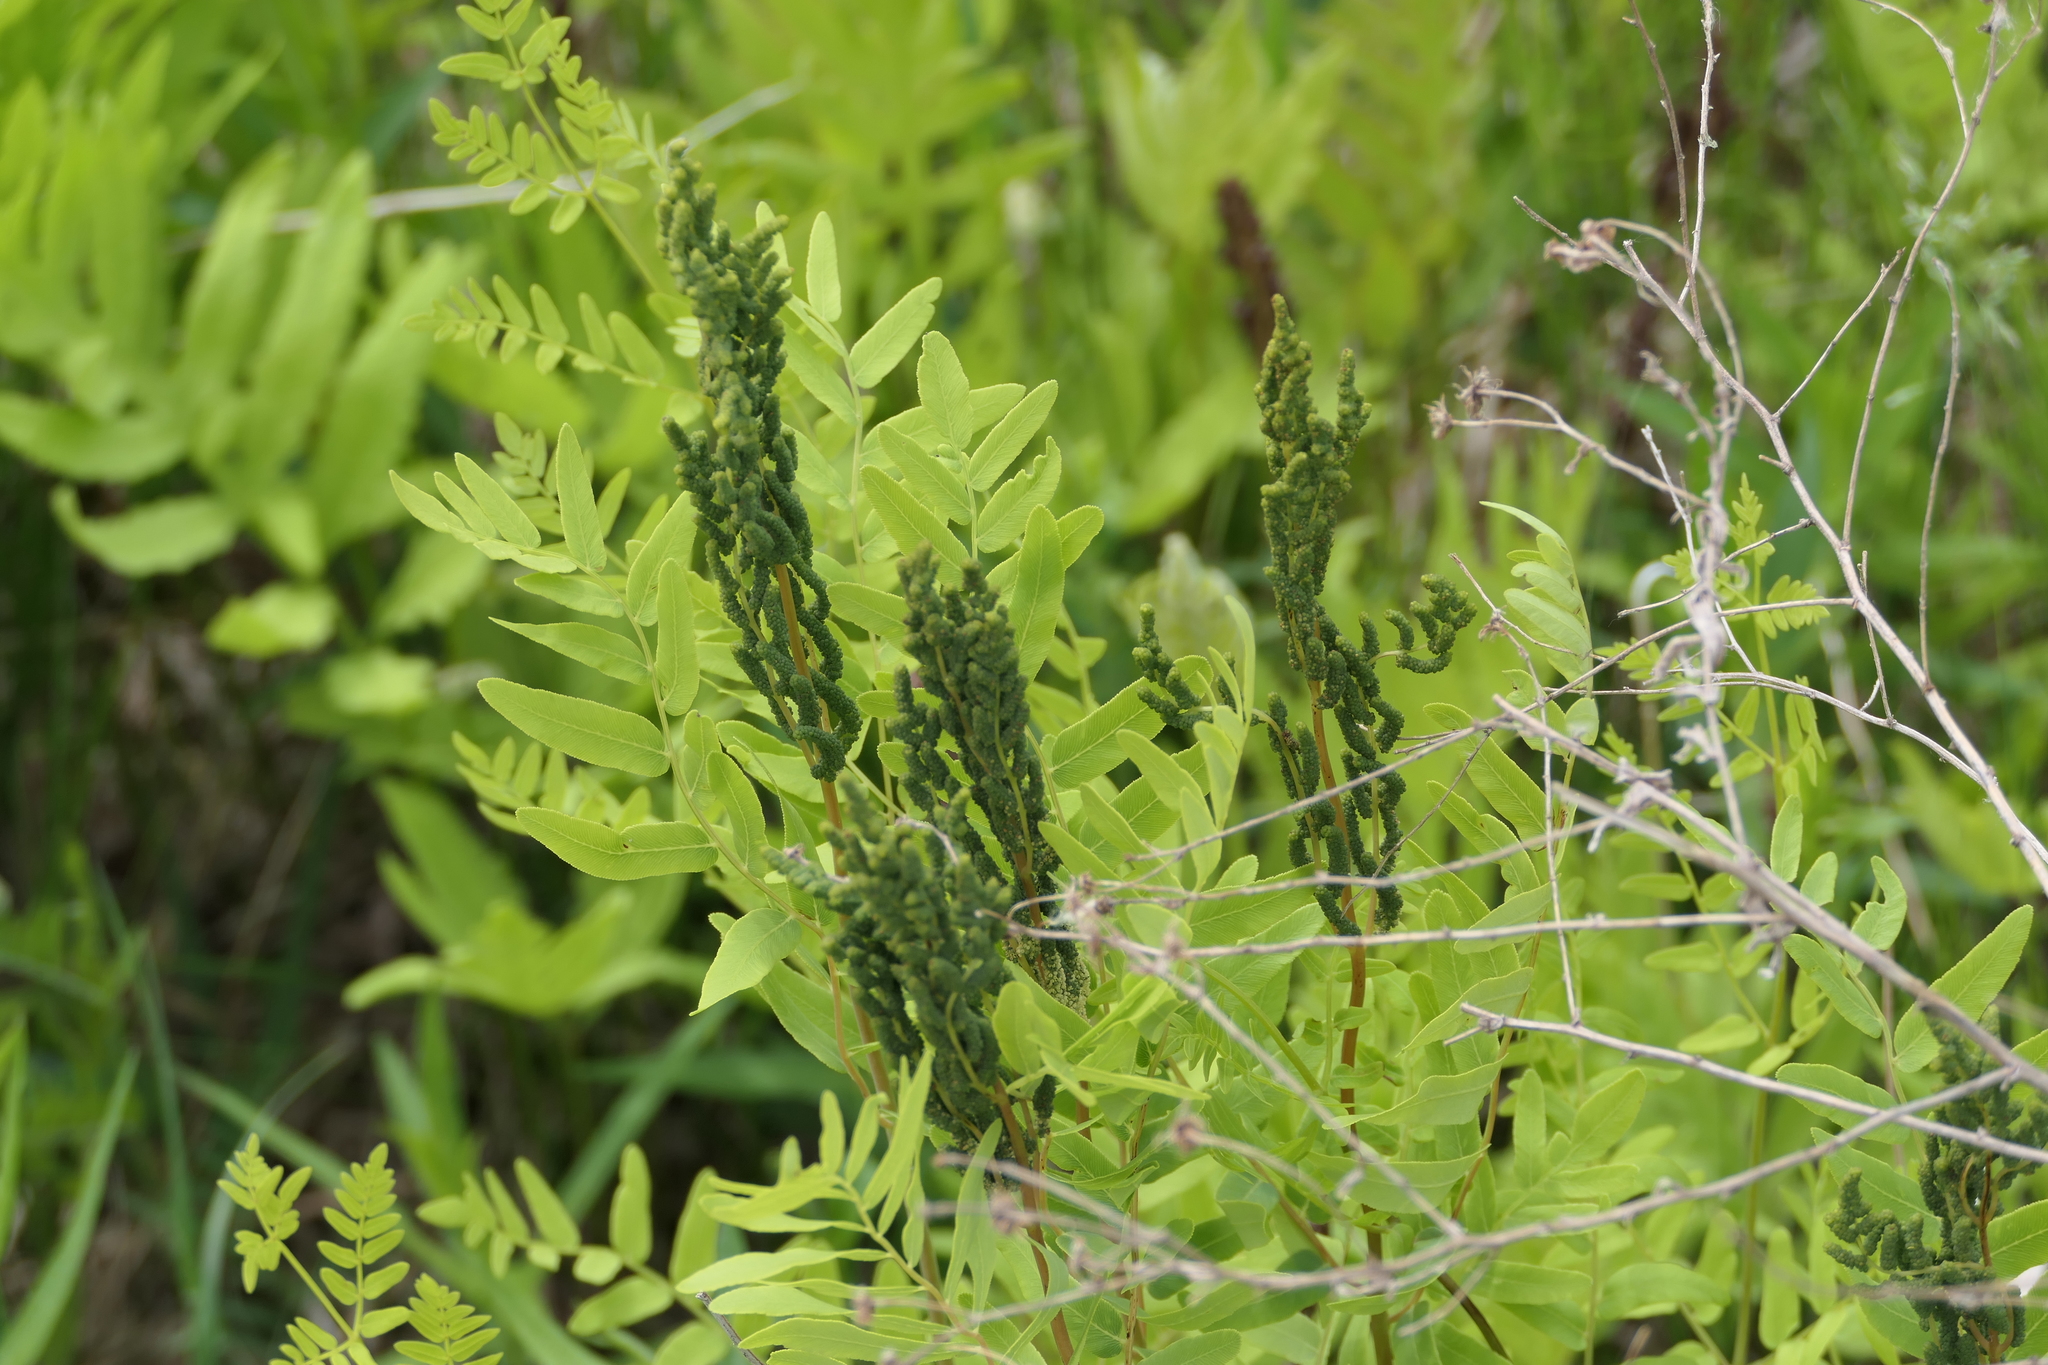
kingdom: Plantae
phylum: Tracheophyta
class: Polypodiopsida
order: Osmundales
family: Osmundaceae
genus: Osmunda
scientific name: Osmunda spectabilis
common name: American royal fern
